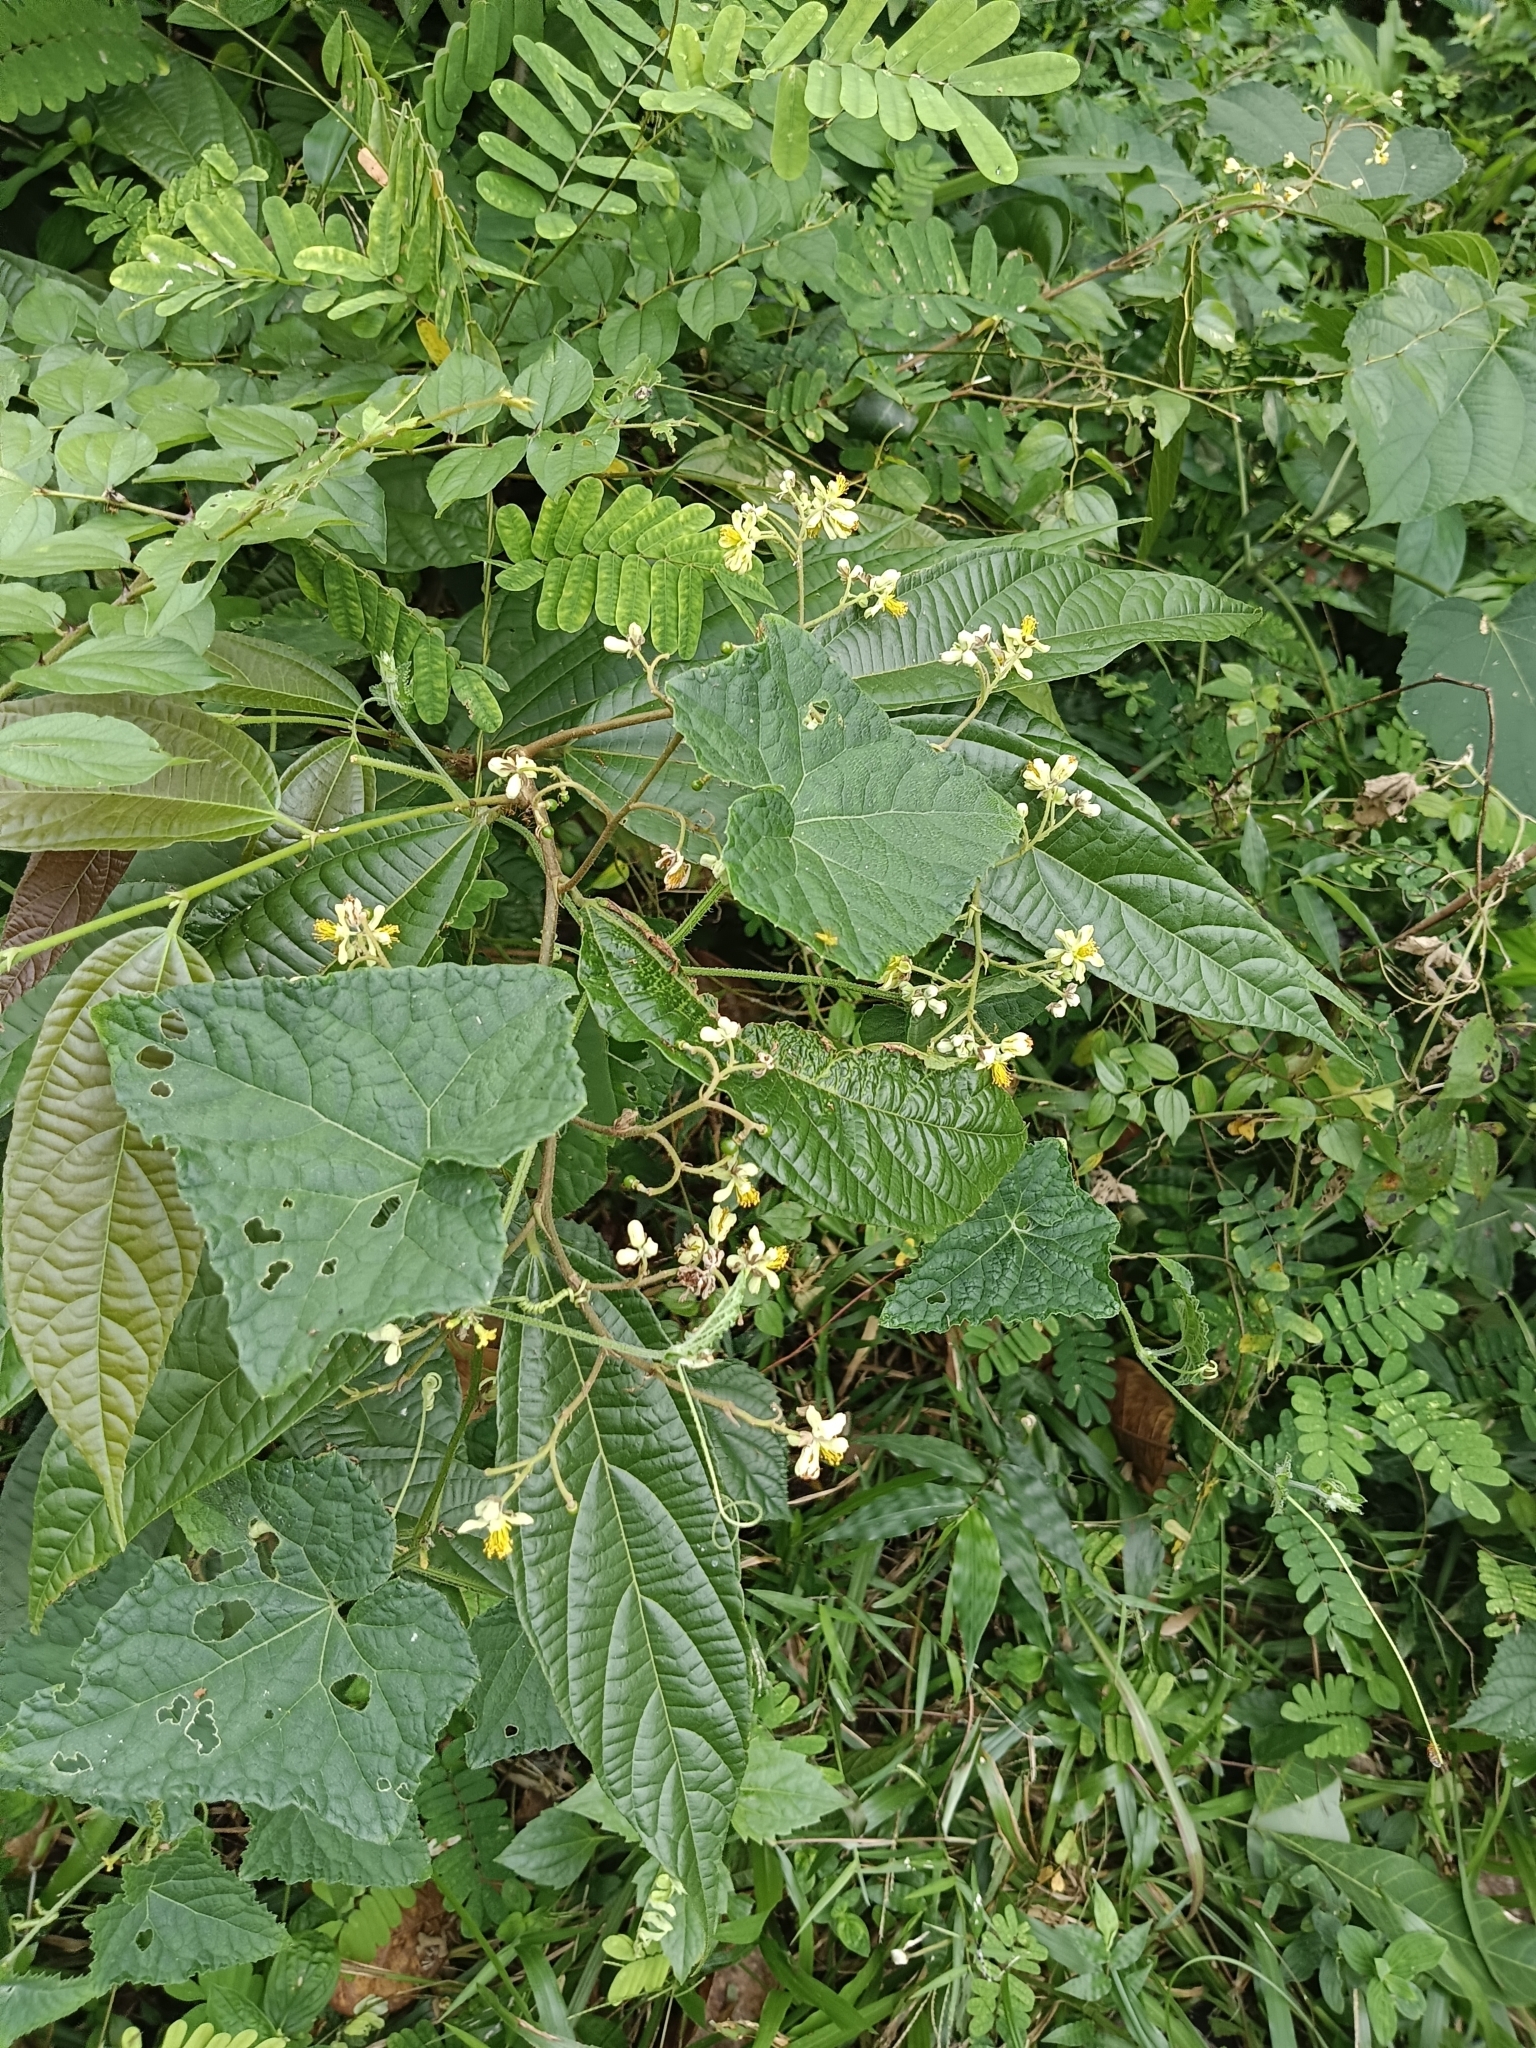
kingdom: Plantae
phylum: Tracheophyta
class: Magnoliopsida
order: Malvales
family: Malvaceae
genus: Microcos
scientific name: Microcos paniculata
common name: Microcos
